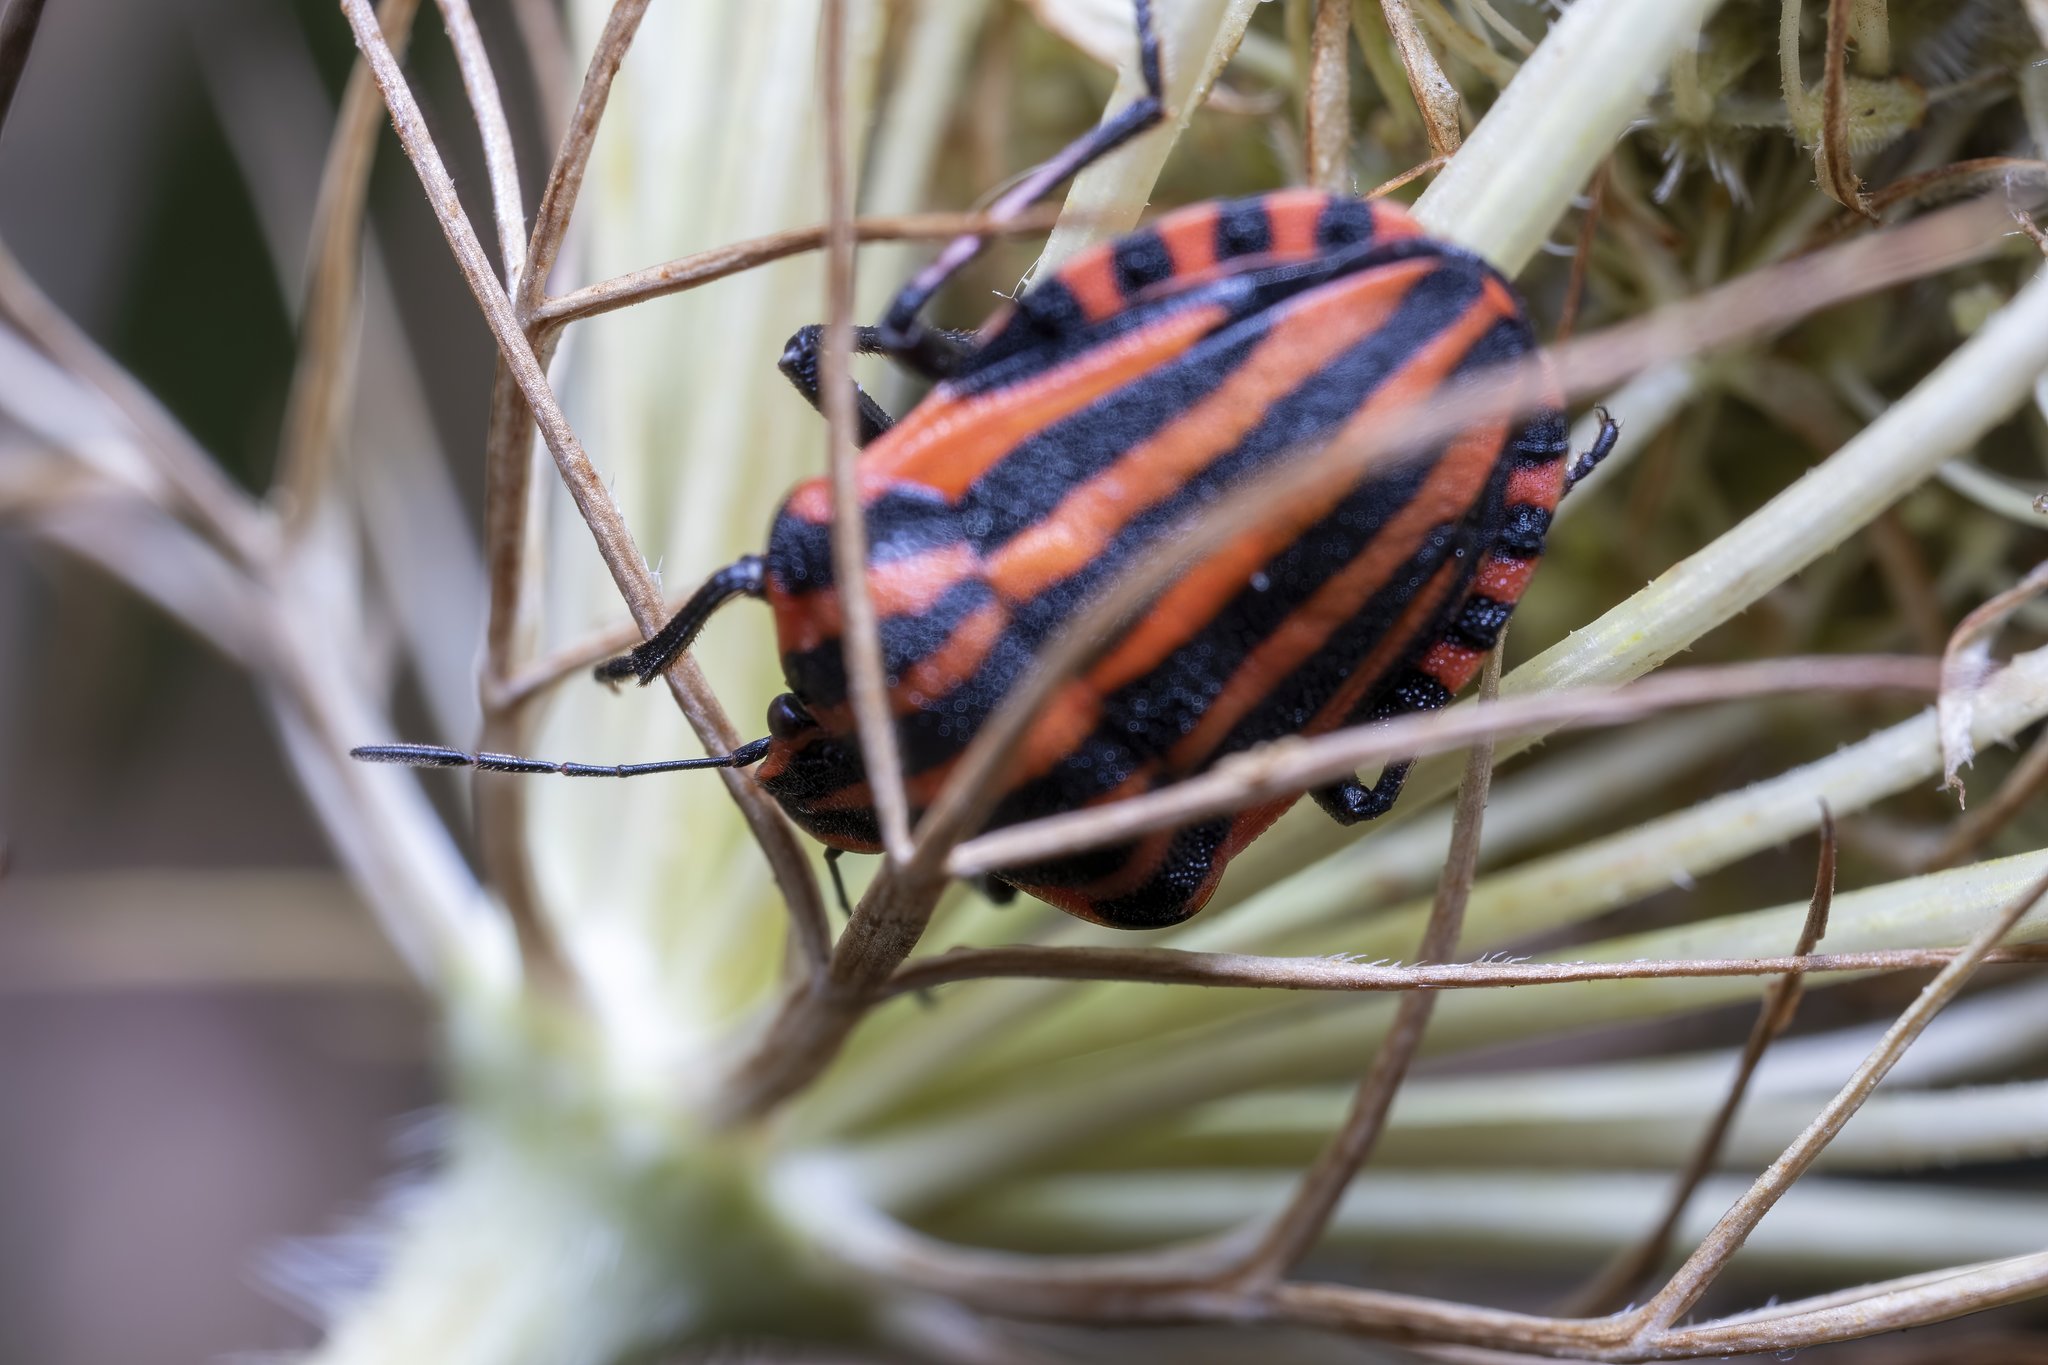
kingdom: Animalia
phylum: Arthropoda
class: Insecta
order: Hemiptera
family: Pentatomidae
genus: Graphosoma
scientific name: Graphosoma italicum
